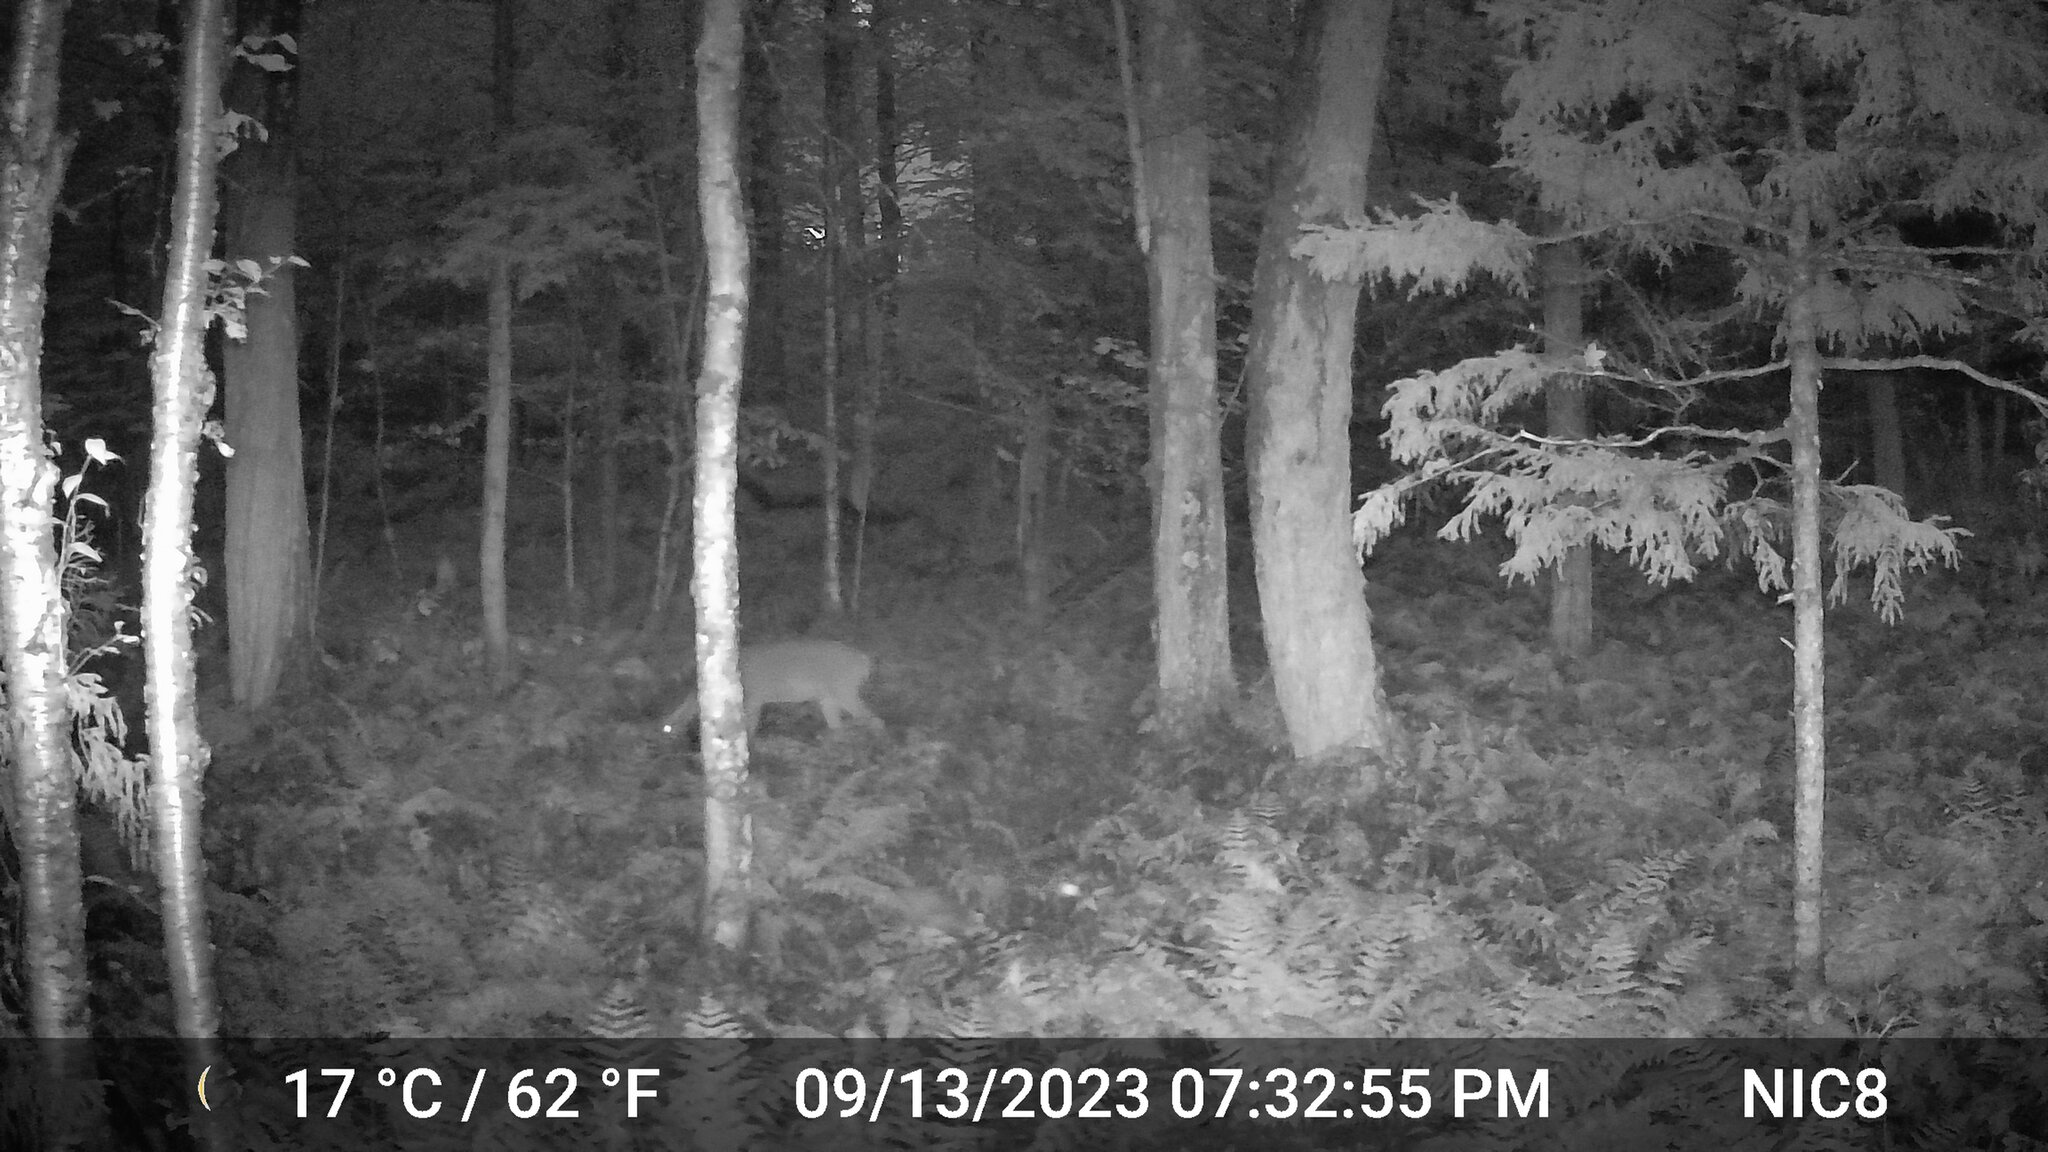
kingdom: Animalia
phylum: Chordata
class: Mammalia
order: Artiodactyla
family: Cervidae
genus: Odocoileus
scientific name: Odocoileus virginianus
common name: White-tailed deer
